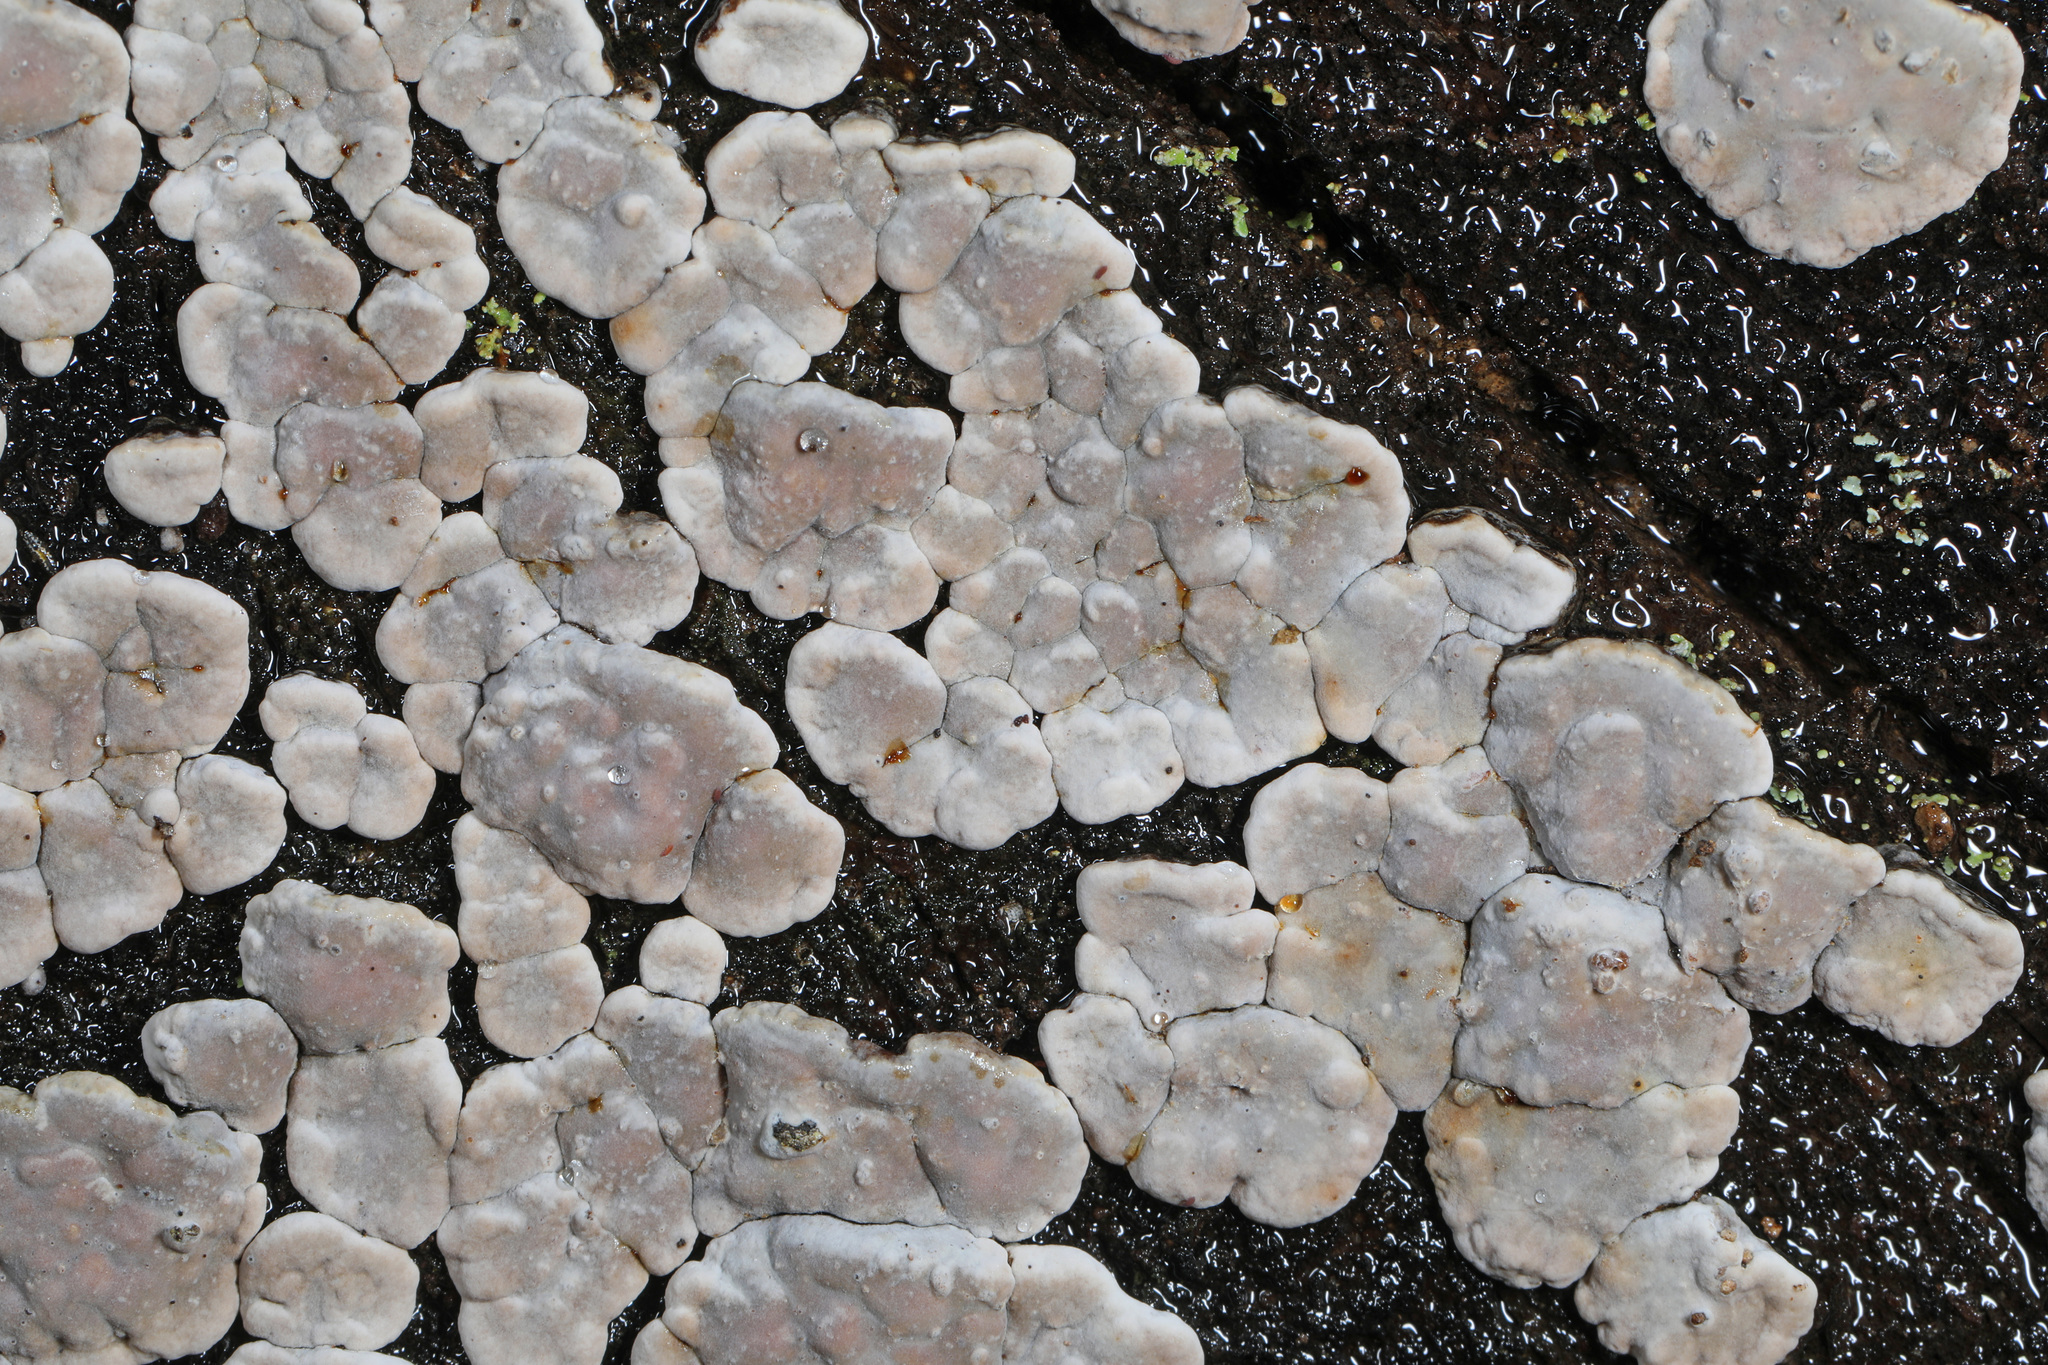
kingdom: Fungi
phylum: Basidiomycota
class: Agaricomycetes
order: Russulales
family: Stereaceae
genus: Xylobolus
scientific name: Xylobolus frustulatus
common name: Ceramic parchment
